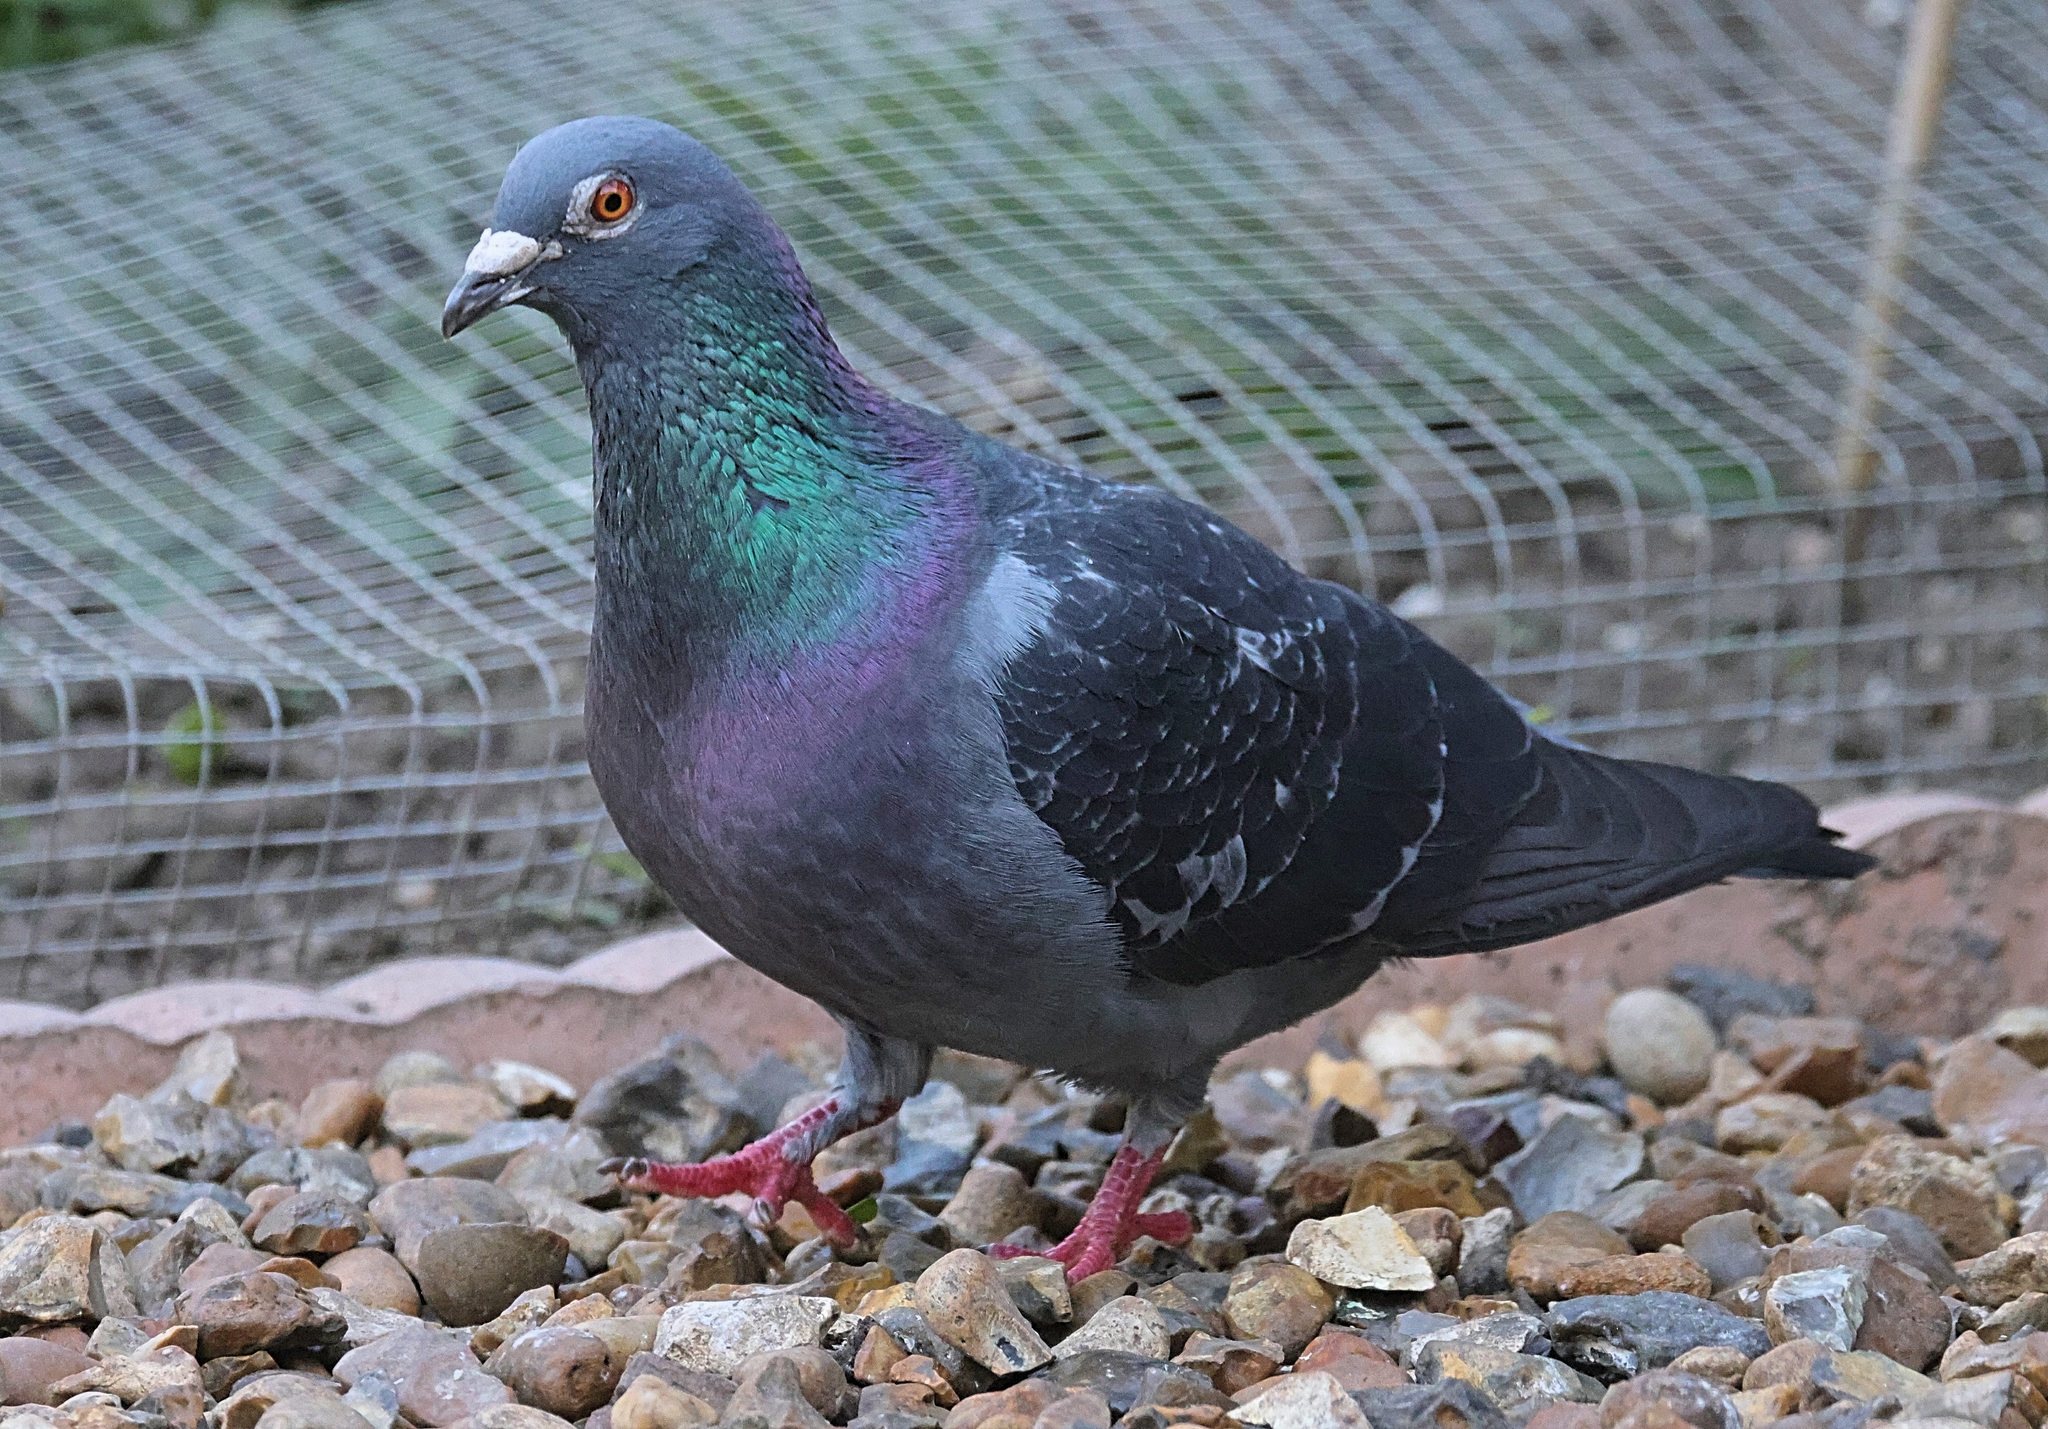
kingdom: Animalia
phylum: Chordata
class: Aves
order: Columbiformes
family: Columbidae
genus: Columba
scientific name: Columba livia
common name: Rock pigeon
